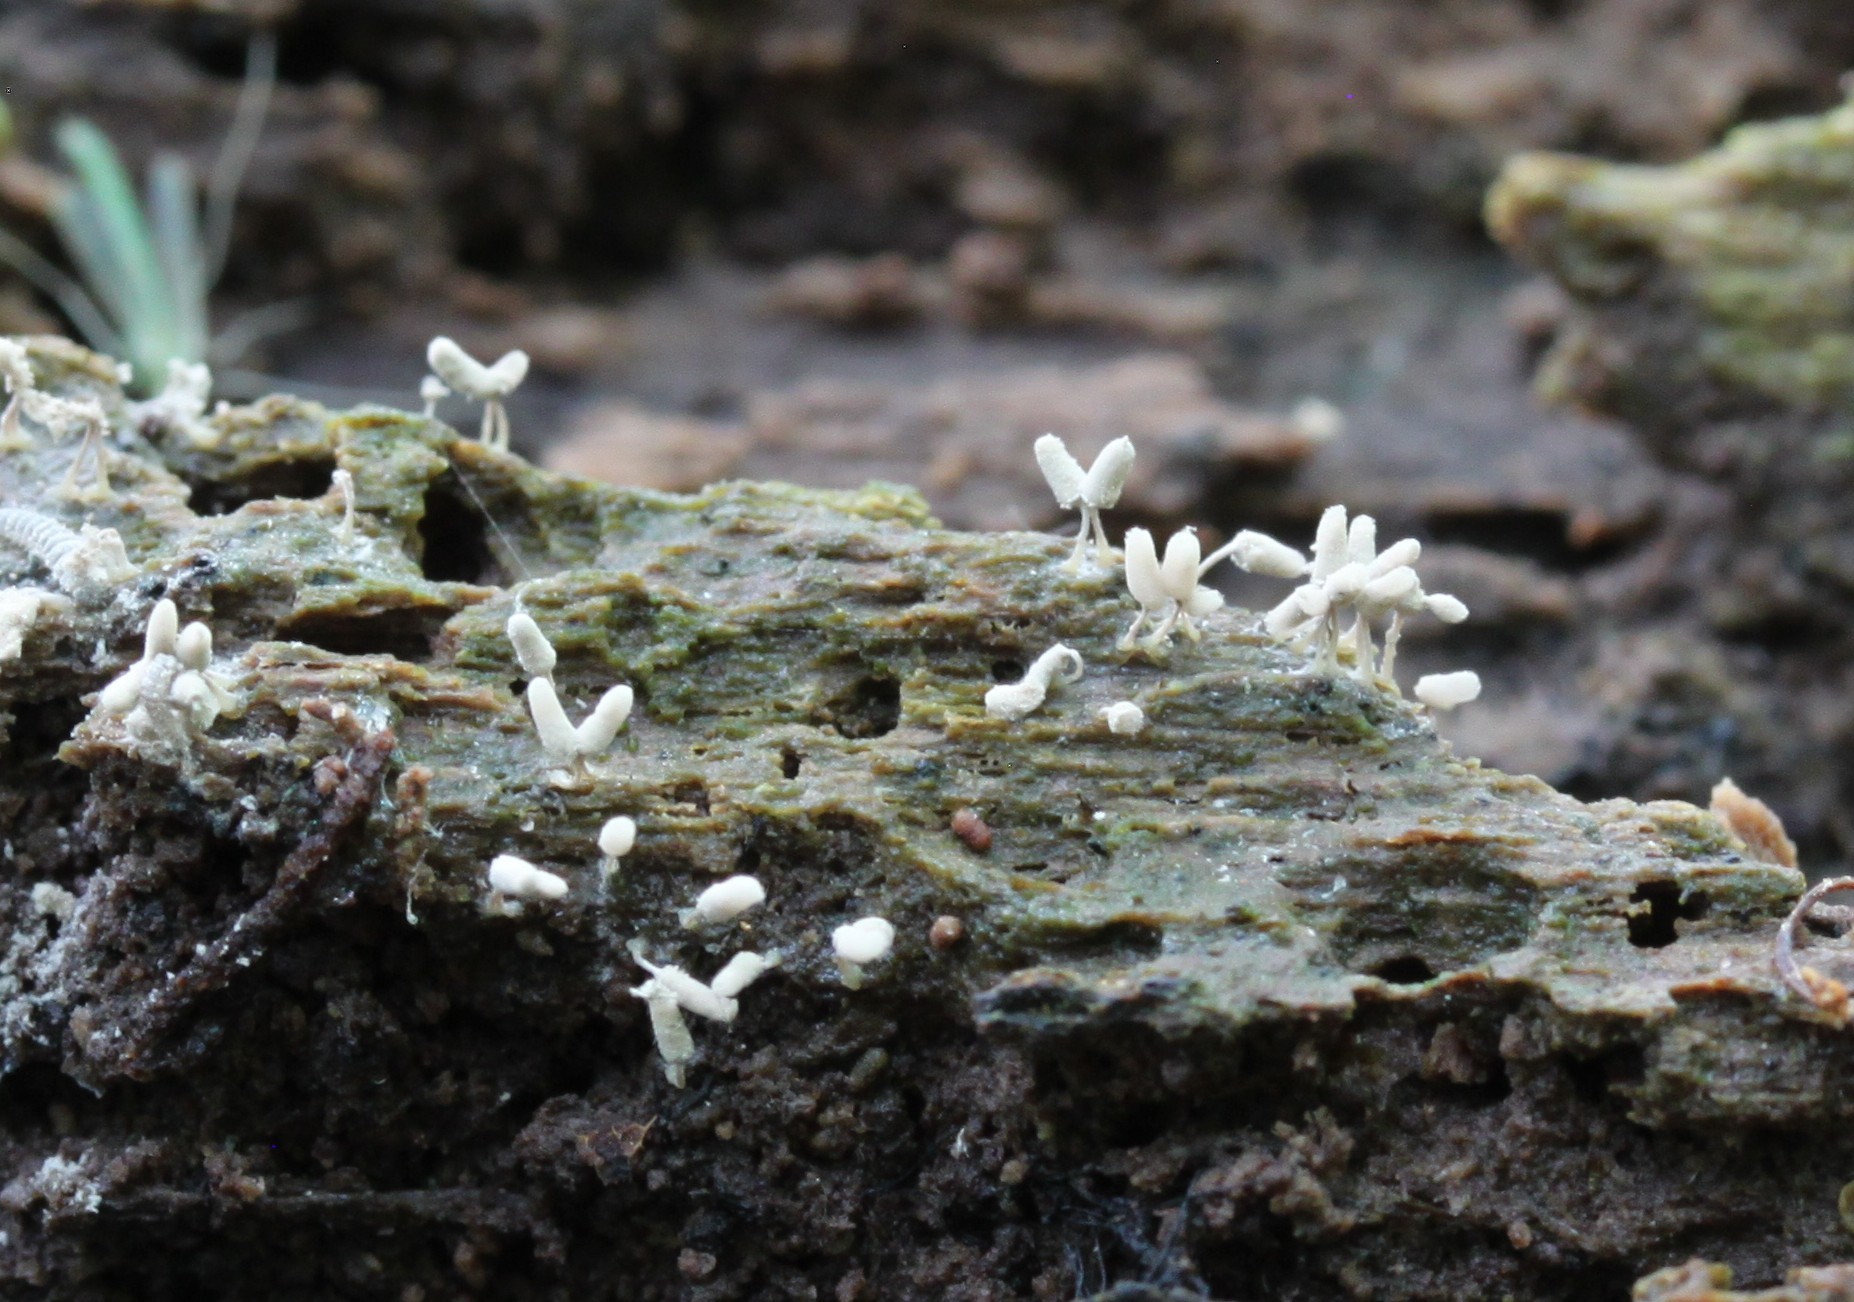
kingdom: Protozoa
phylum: Mycetozoa
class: Myxomycetes
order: Trichiales
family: Arcyriaceae
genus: Arcyria
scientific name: Arcyria cinerea
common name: White carnival candy slime mold
